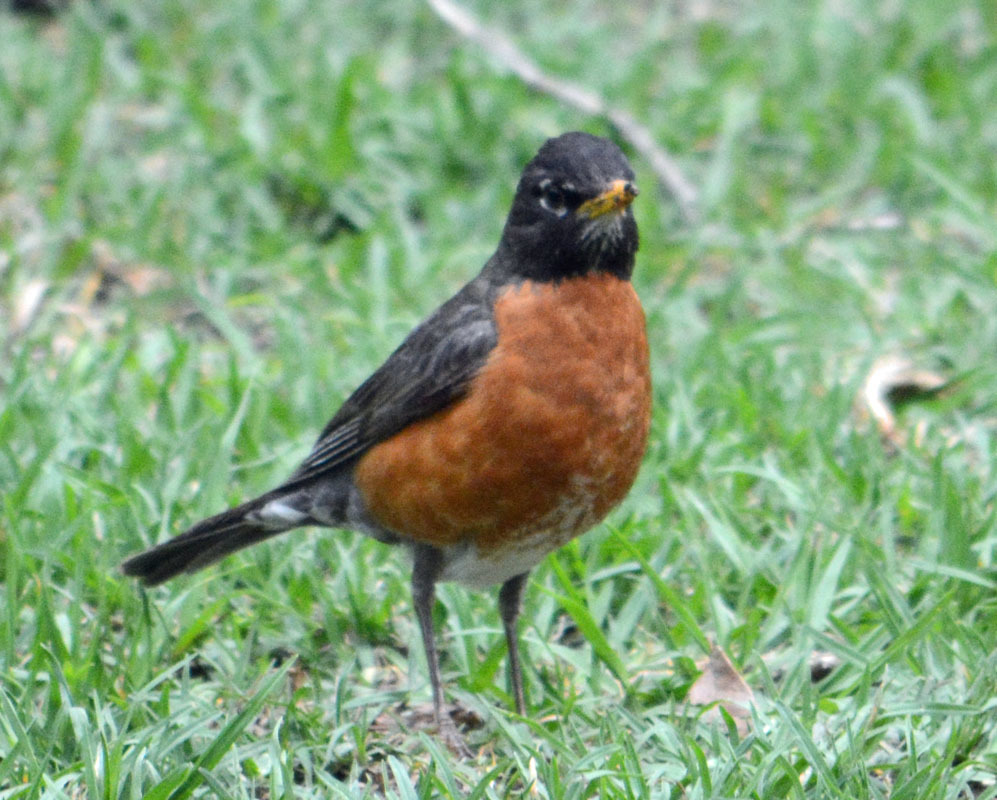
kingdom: Animalia
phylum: Chordata
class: Aves
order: Passeriformes
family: Turdidae
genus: Turdus
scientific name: Turdus migratorius
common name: American robin
